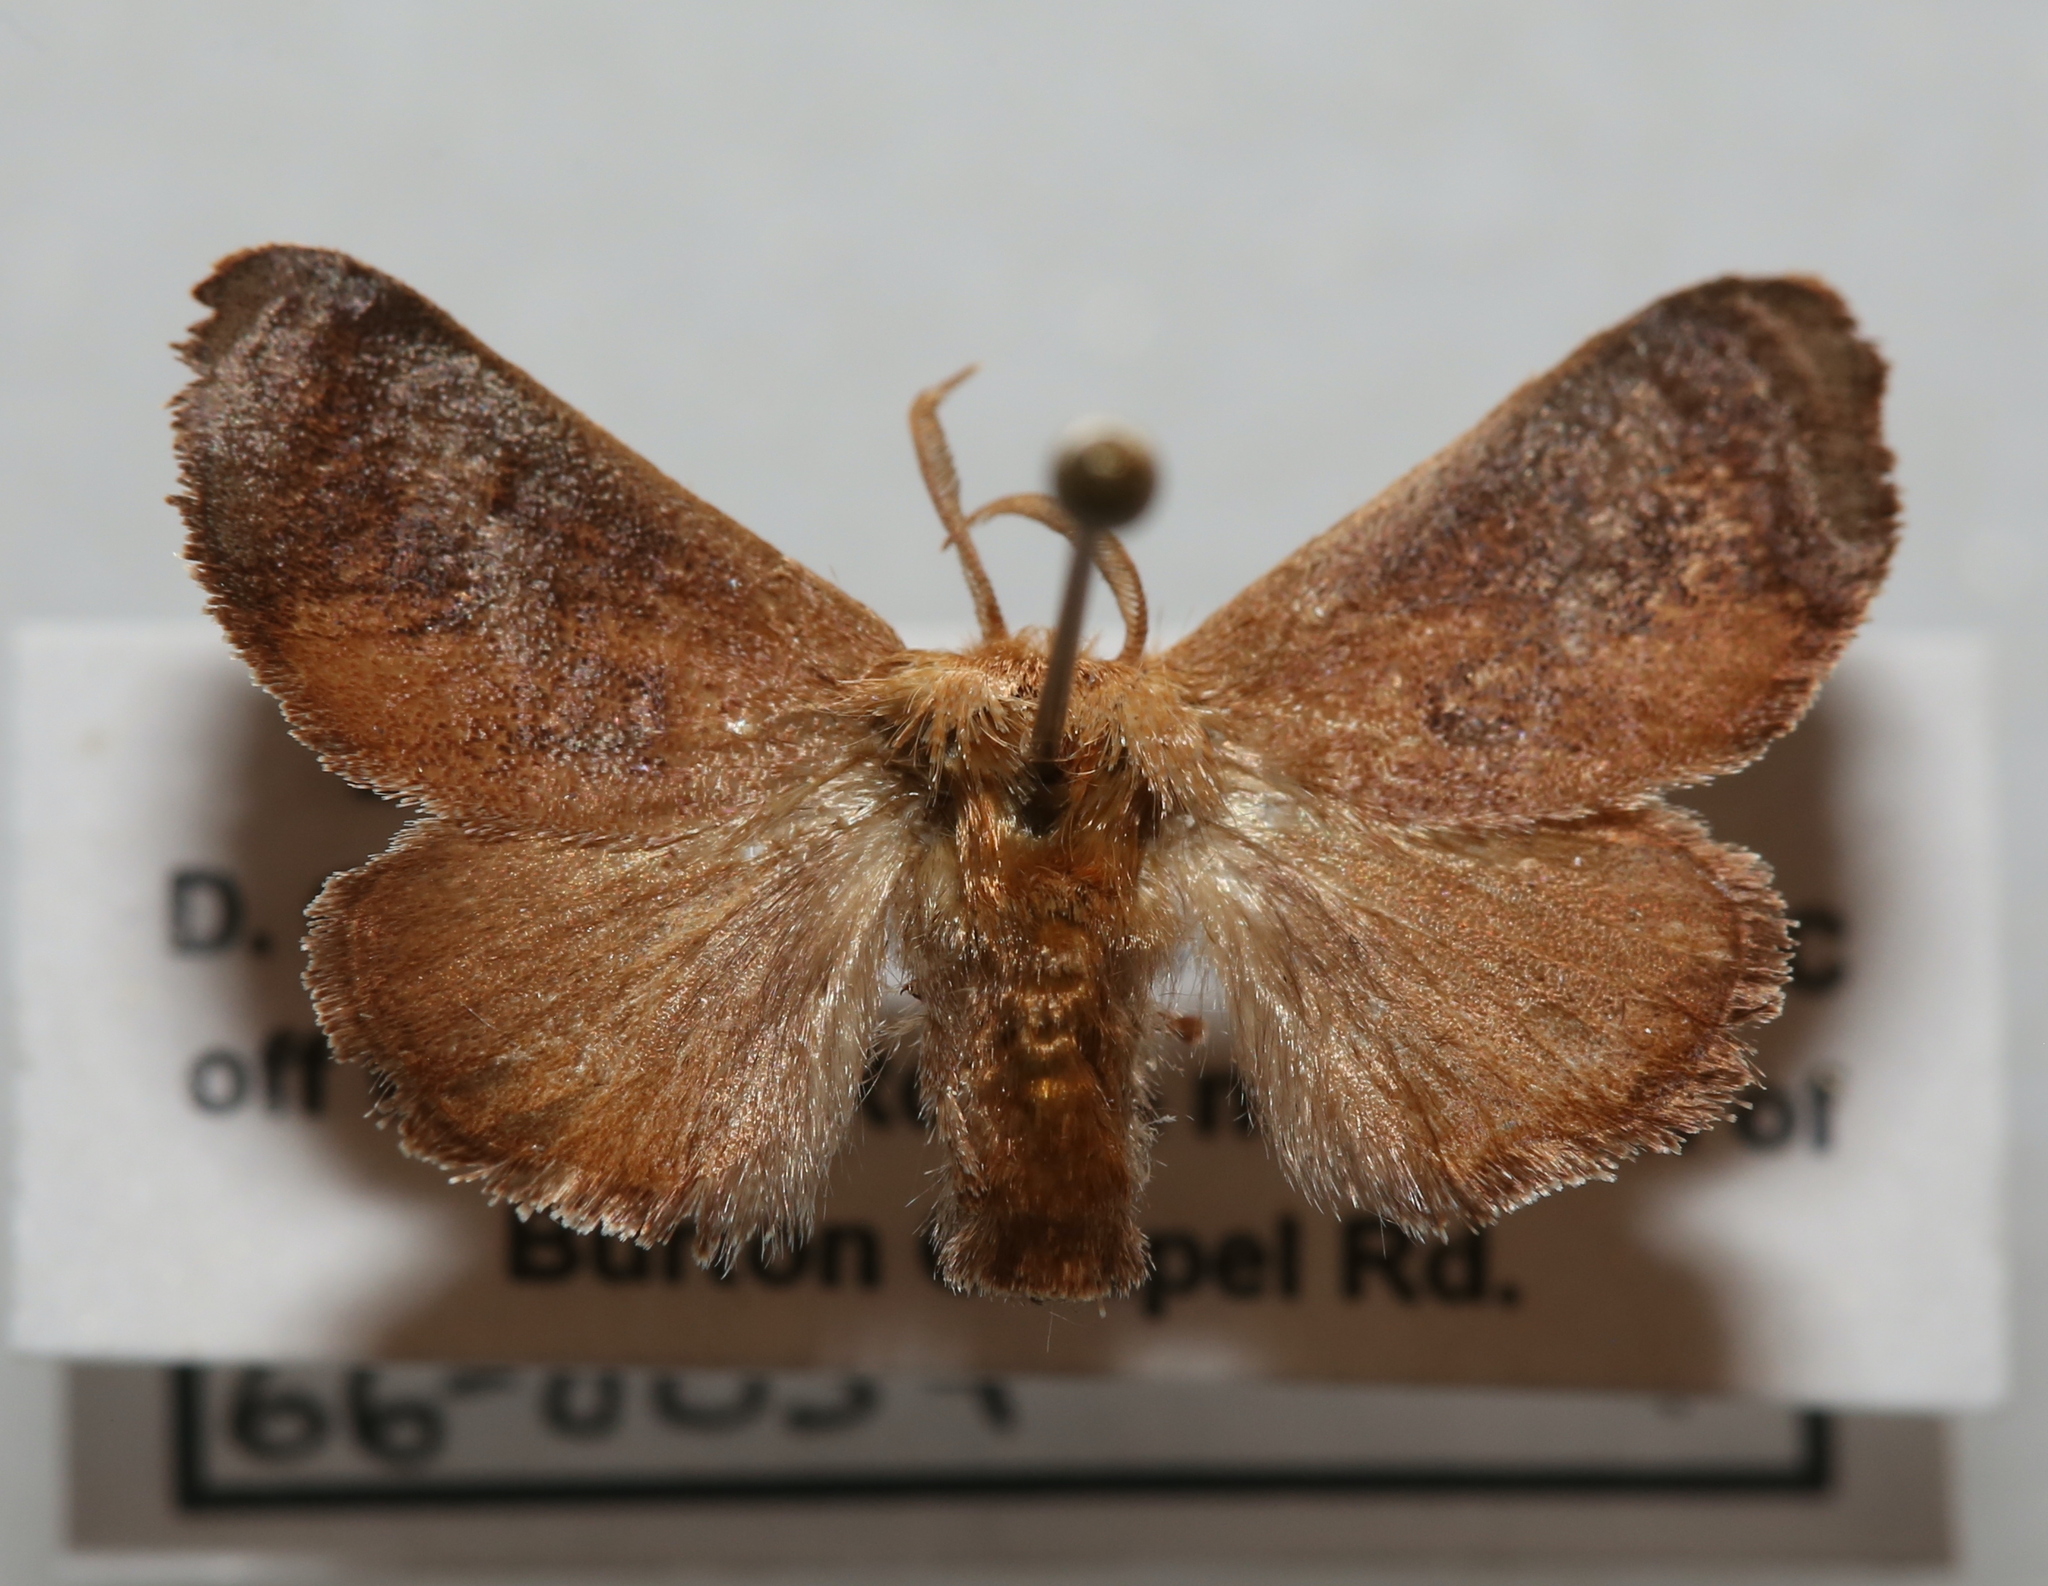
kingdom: Animalia
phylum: Arthropoda
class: Insecta
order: Lepidoptera
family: Limacodidae
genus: Isa
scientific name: Isa textula
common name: Crowned slug moth
